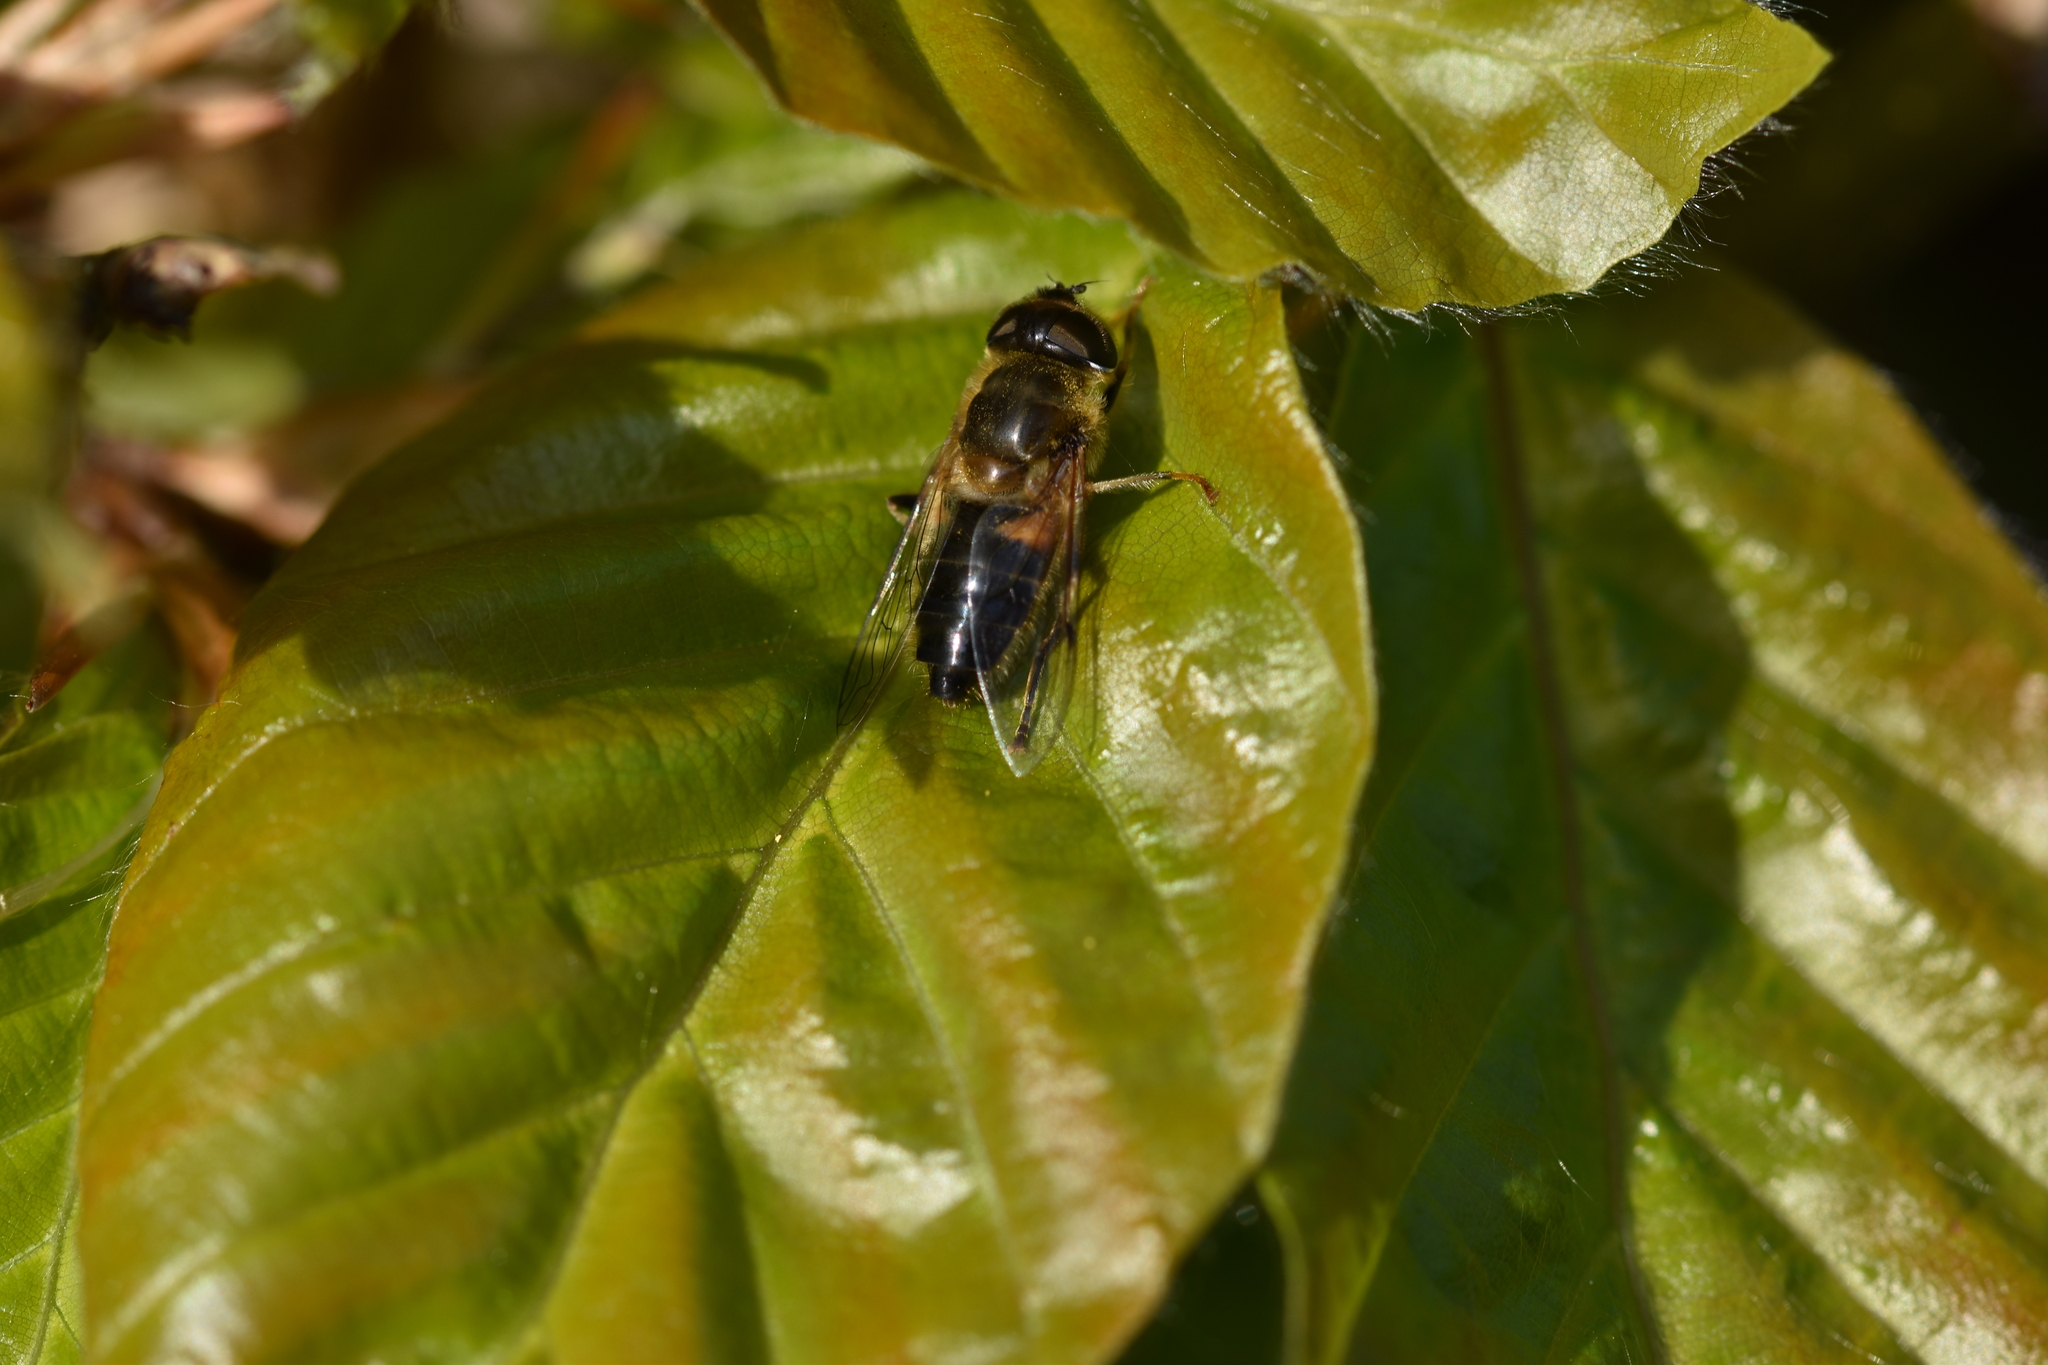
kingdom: Animalia
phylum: Arthropoda
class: Insecta
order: Diptera
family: Syrphidae
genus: Eristalis
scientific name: Eristalis pertinax
